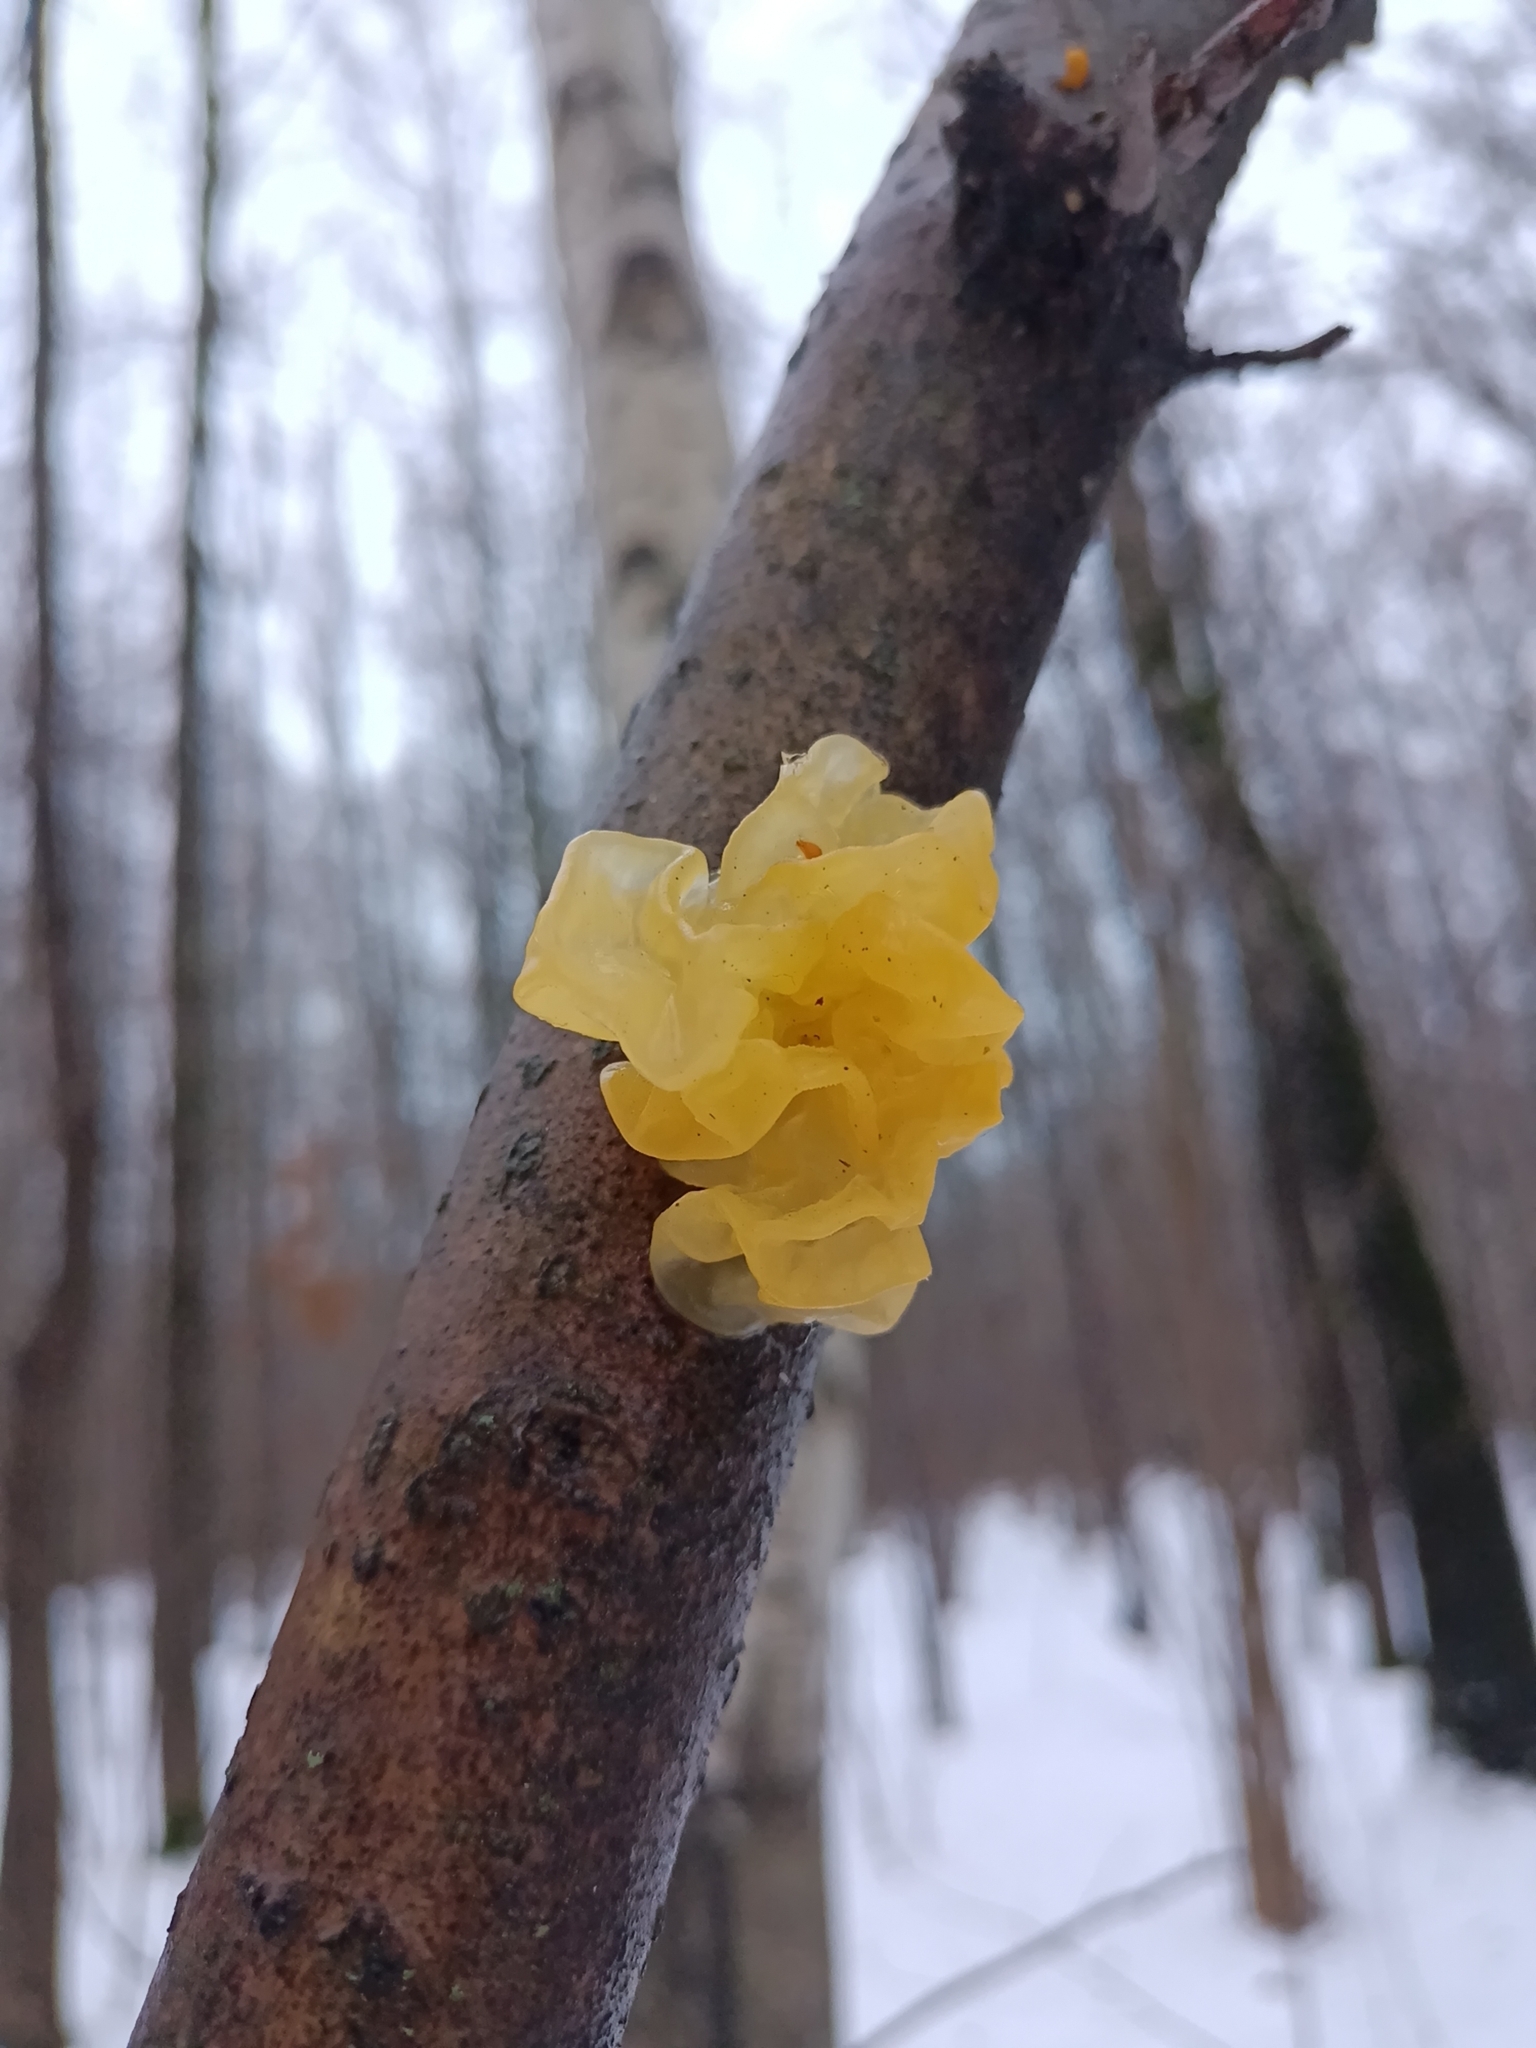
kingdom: Fungi
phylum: Basidiomycota
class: Tremellomycetes
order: Tremellales
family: Tremellaceae
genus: Tremella
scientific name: Tremella mesenterica
